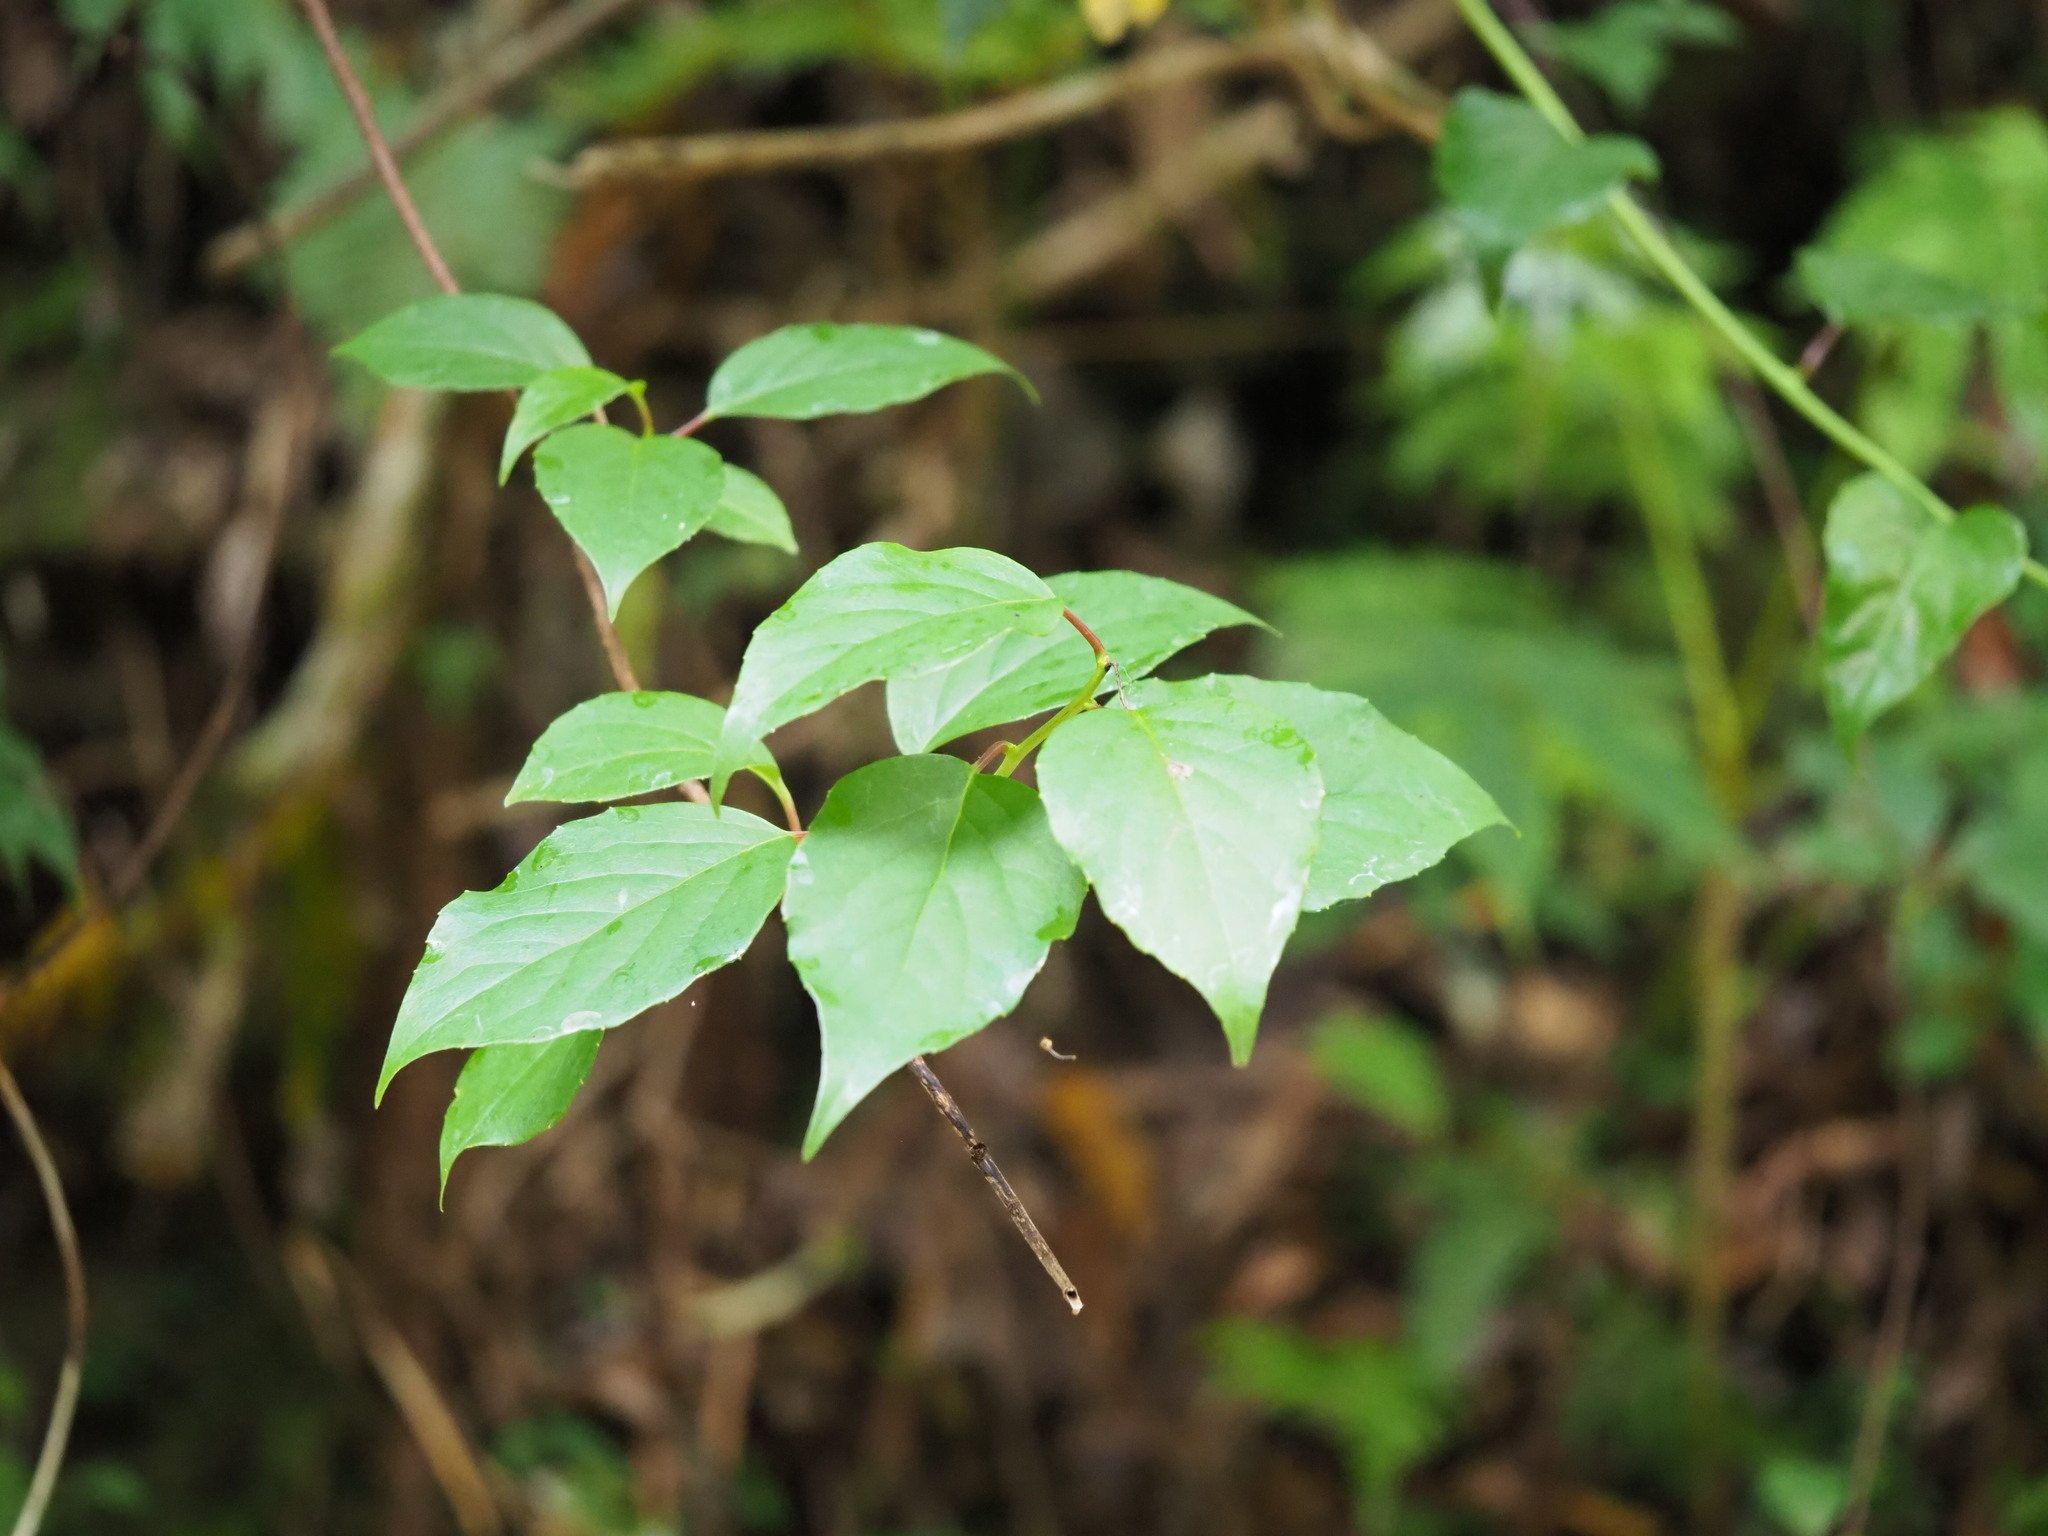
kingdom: Plantae
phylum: Tracheophyta
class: Magnoliopsida
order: Austrobaileyales
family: Schisandraceae
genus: Schisandra
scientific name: Schisandra arisanensis
